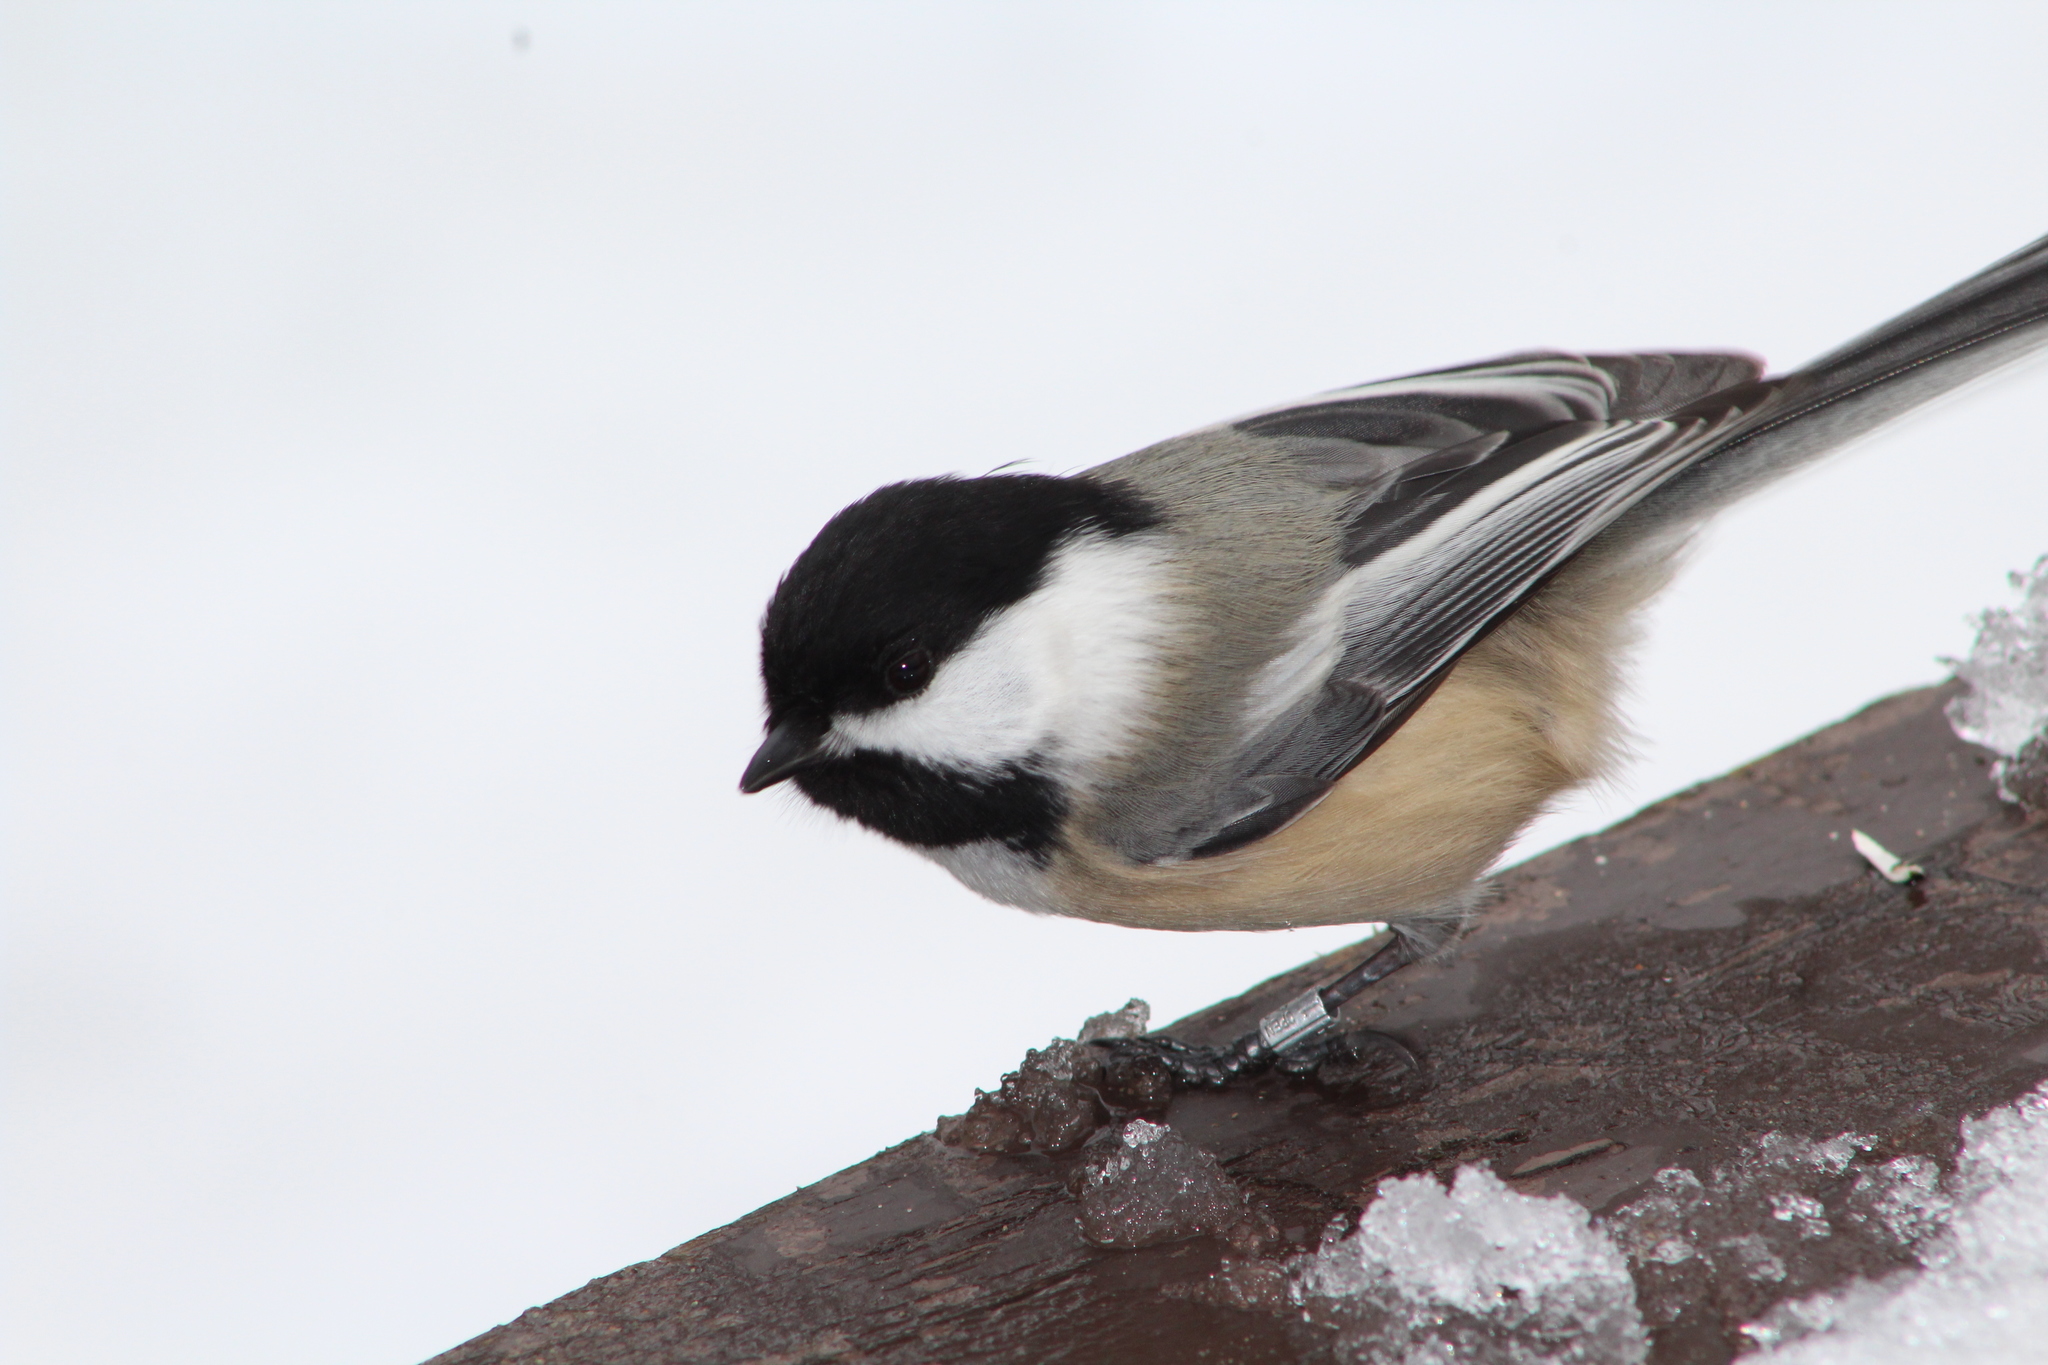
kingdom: Animalia
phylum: Chordata
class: Aves
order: Passeriformes
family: Paridae
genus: Poecile
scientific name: Poecile atricapillus
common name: Black-capped chickadee
